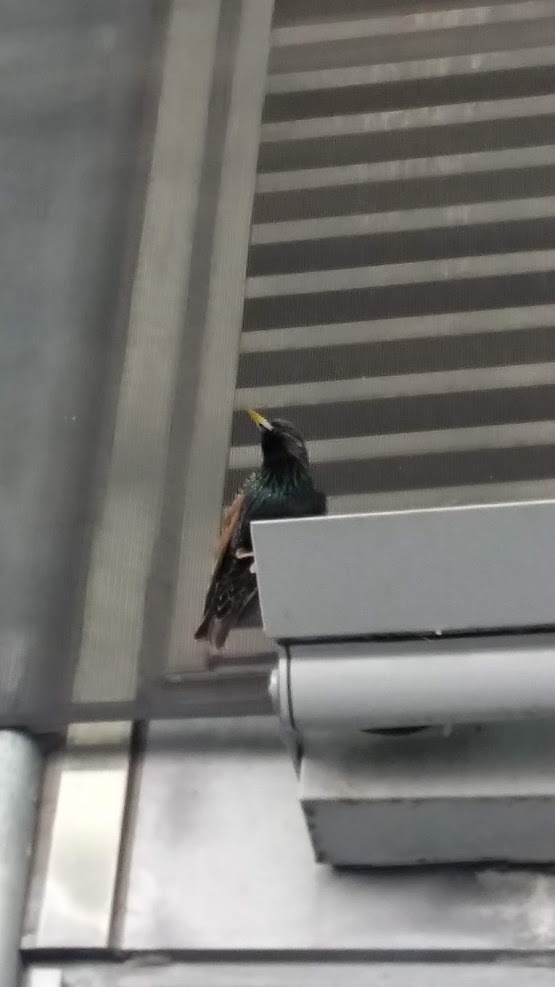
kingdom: Animalia
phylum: Chordata
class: Aves
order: Passeriformes
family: Sturnidae
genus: Sturnus
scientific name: Sturnus vulgaris
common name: Common starling
